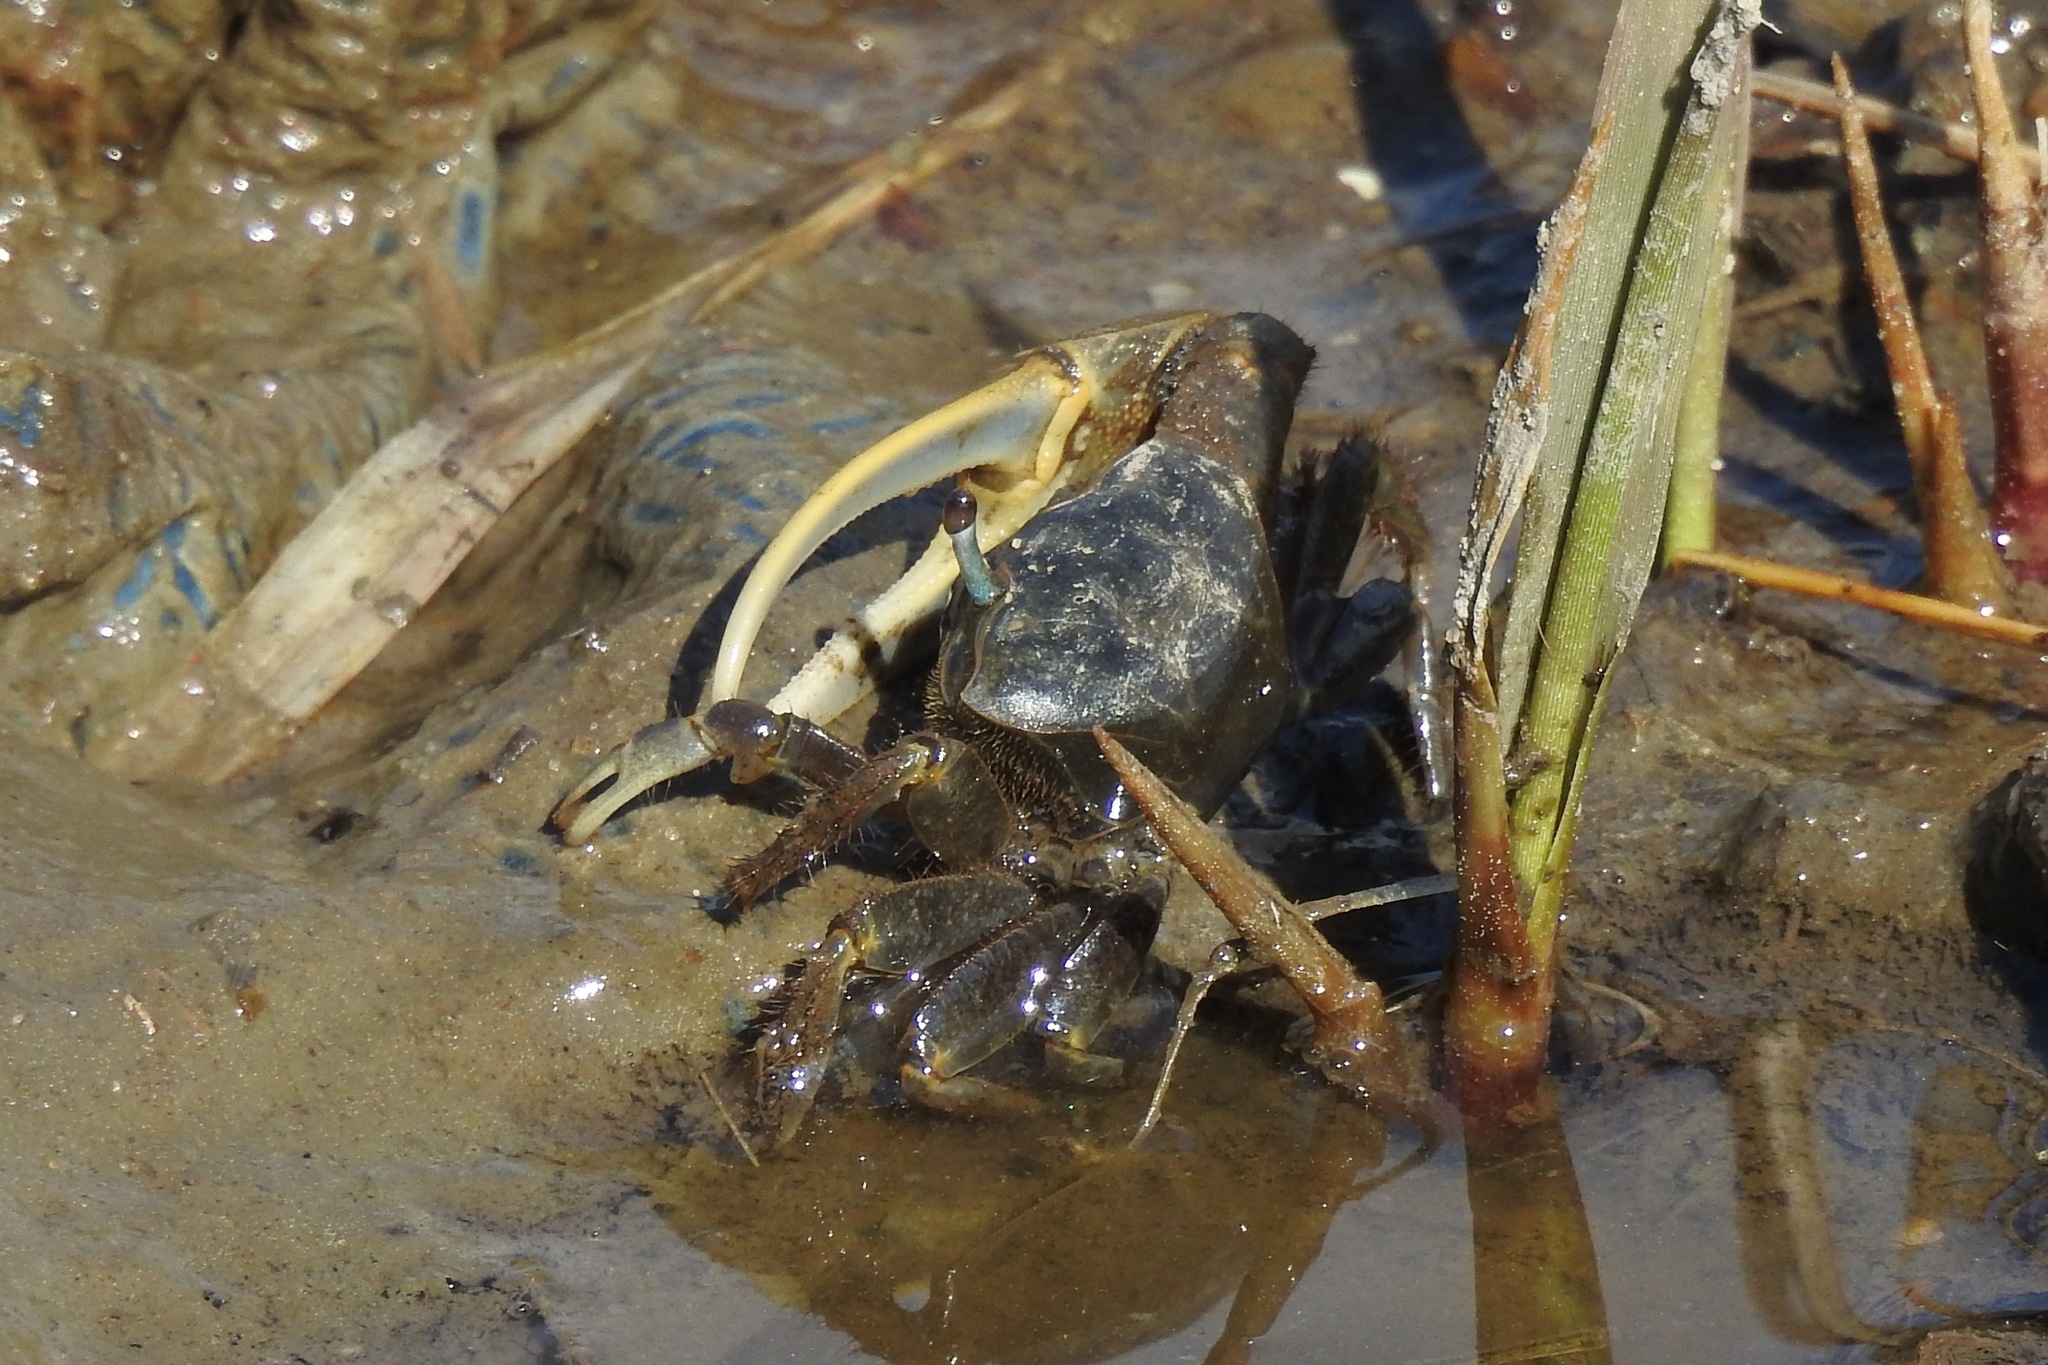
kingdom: Animalia
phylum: Arthropoda
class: Malacostraca
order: Decapoda
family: Ocypodidae
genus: Minuca
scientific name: Minuca pugnax
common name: Mud fiddler crab
